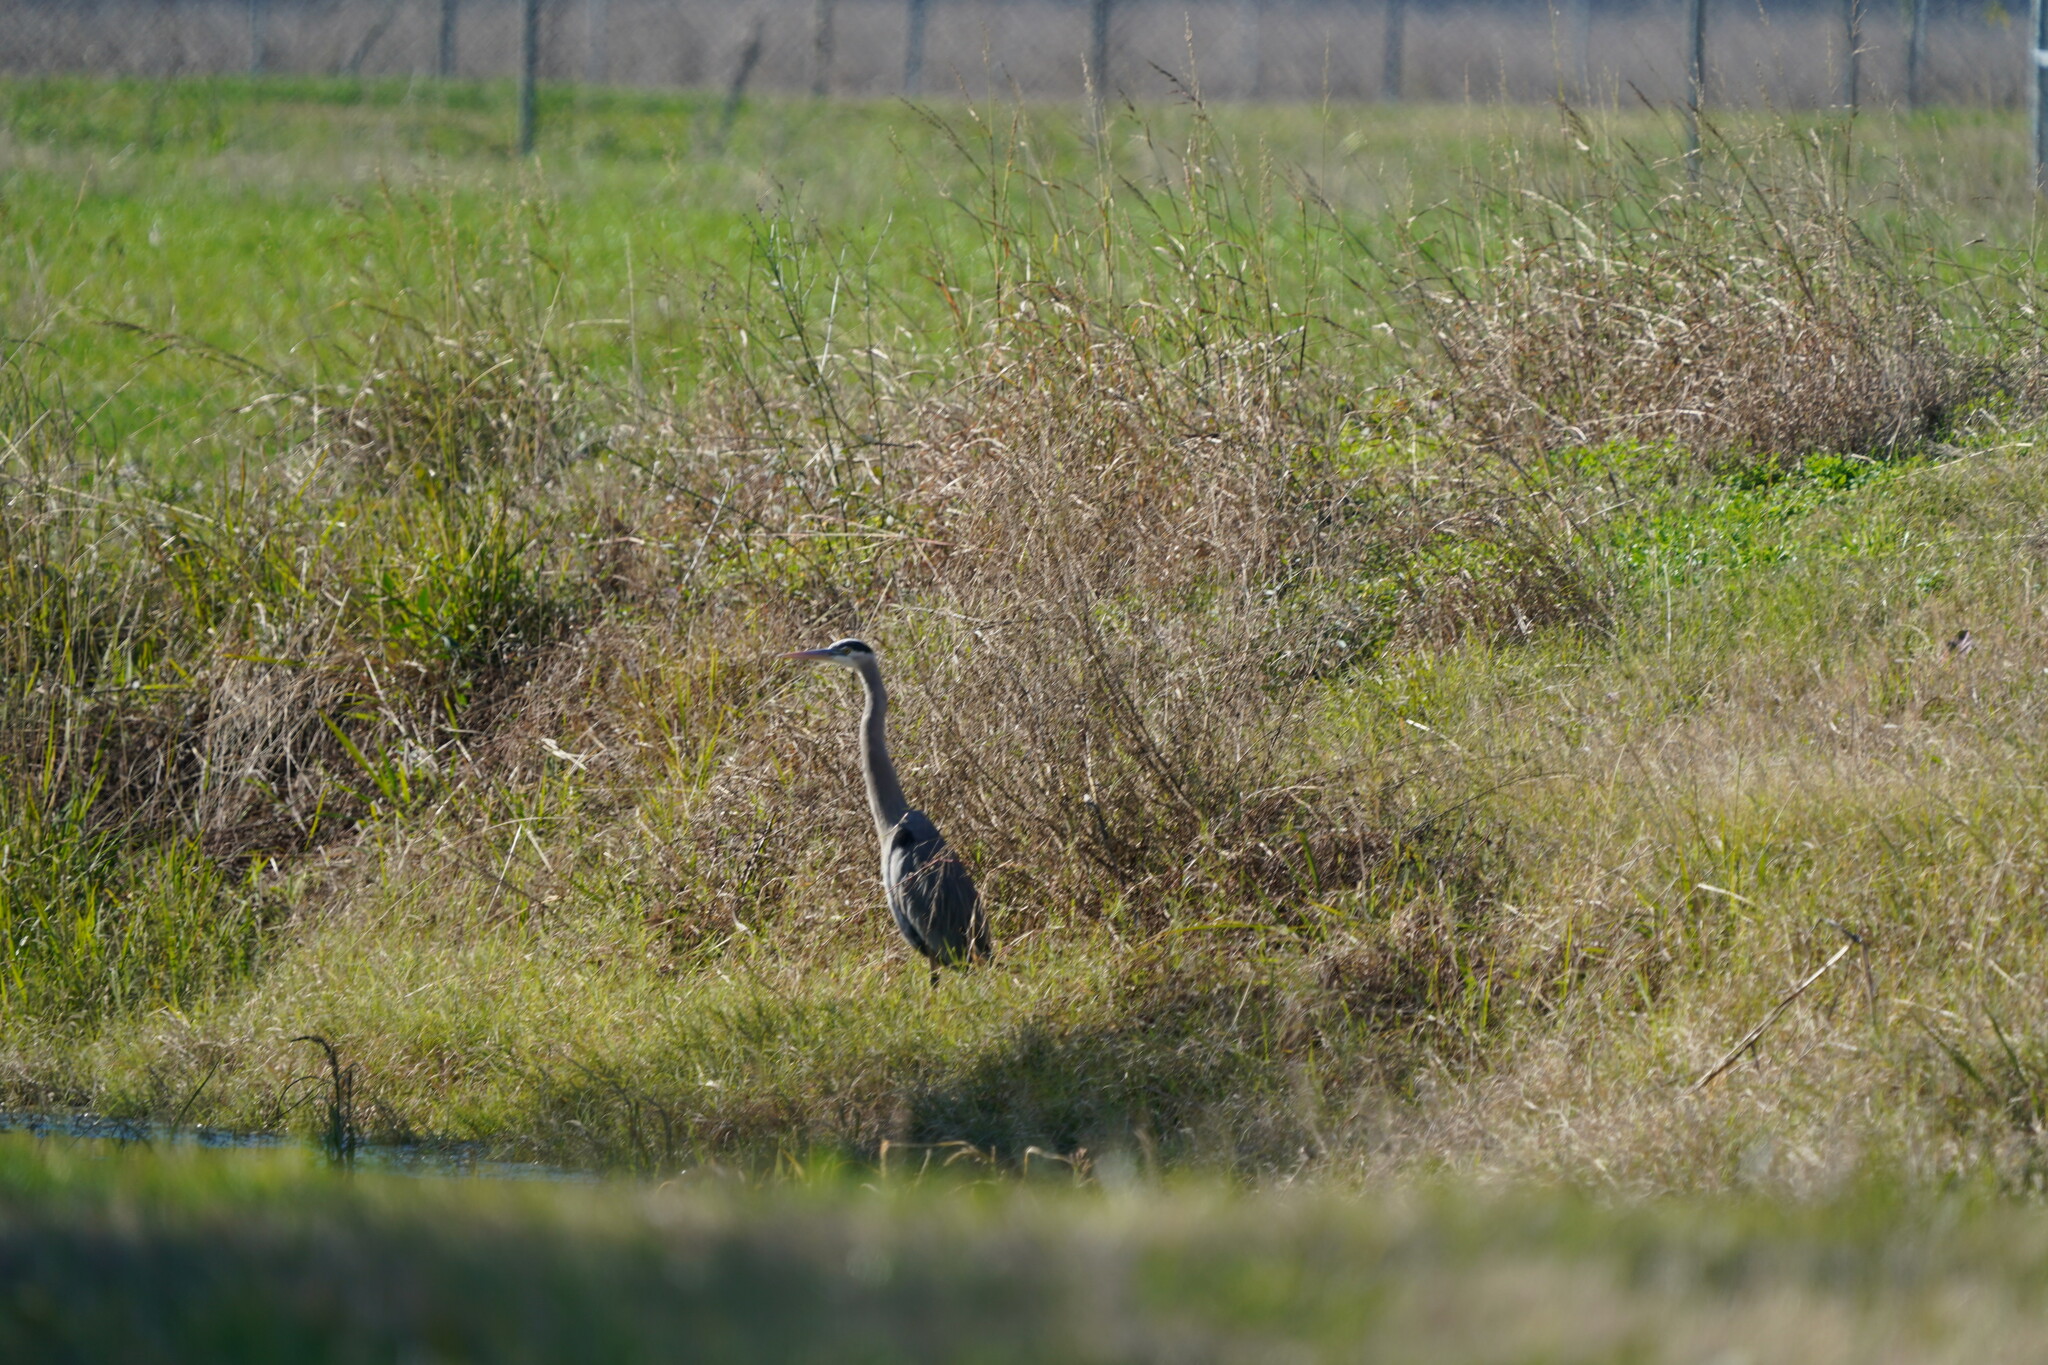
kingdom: Animalia
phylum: Chordata
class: Aves
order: Pelecaniformes
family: Ardeidae
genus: Ardea
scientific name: Ardea herodias
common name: Great blue heron
